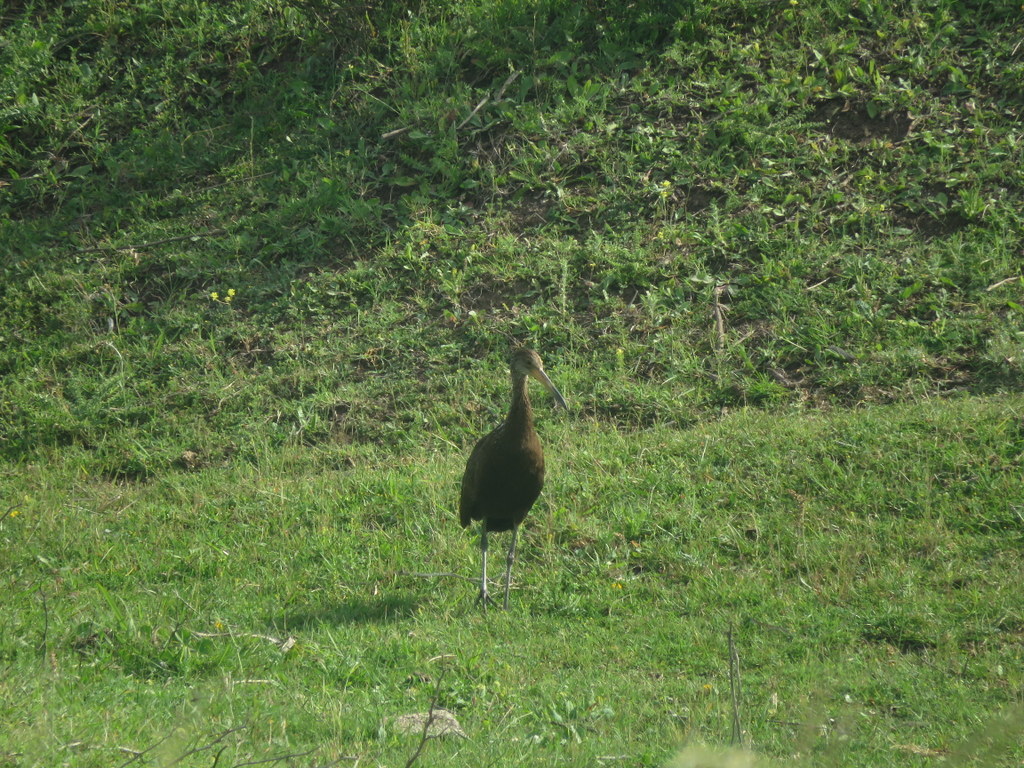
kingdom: Animalia
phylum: Chordata
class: Aves
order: Gruiformes
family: Aramidae
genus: Aramus
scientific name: Aramus guarauna
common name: Limpkin
